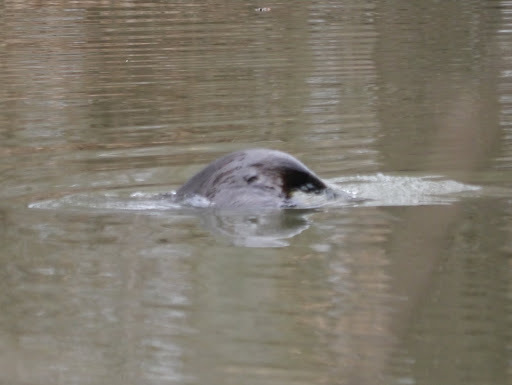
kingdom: Animalia
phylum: Chordata
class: Mammalia
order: Rodentia
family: Castoridae
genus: Castor
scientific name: Castor canadensis
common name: American beaver
